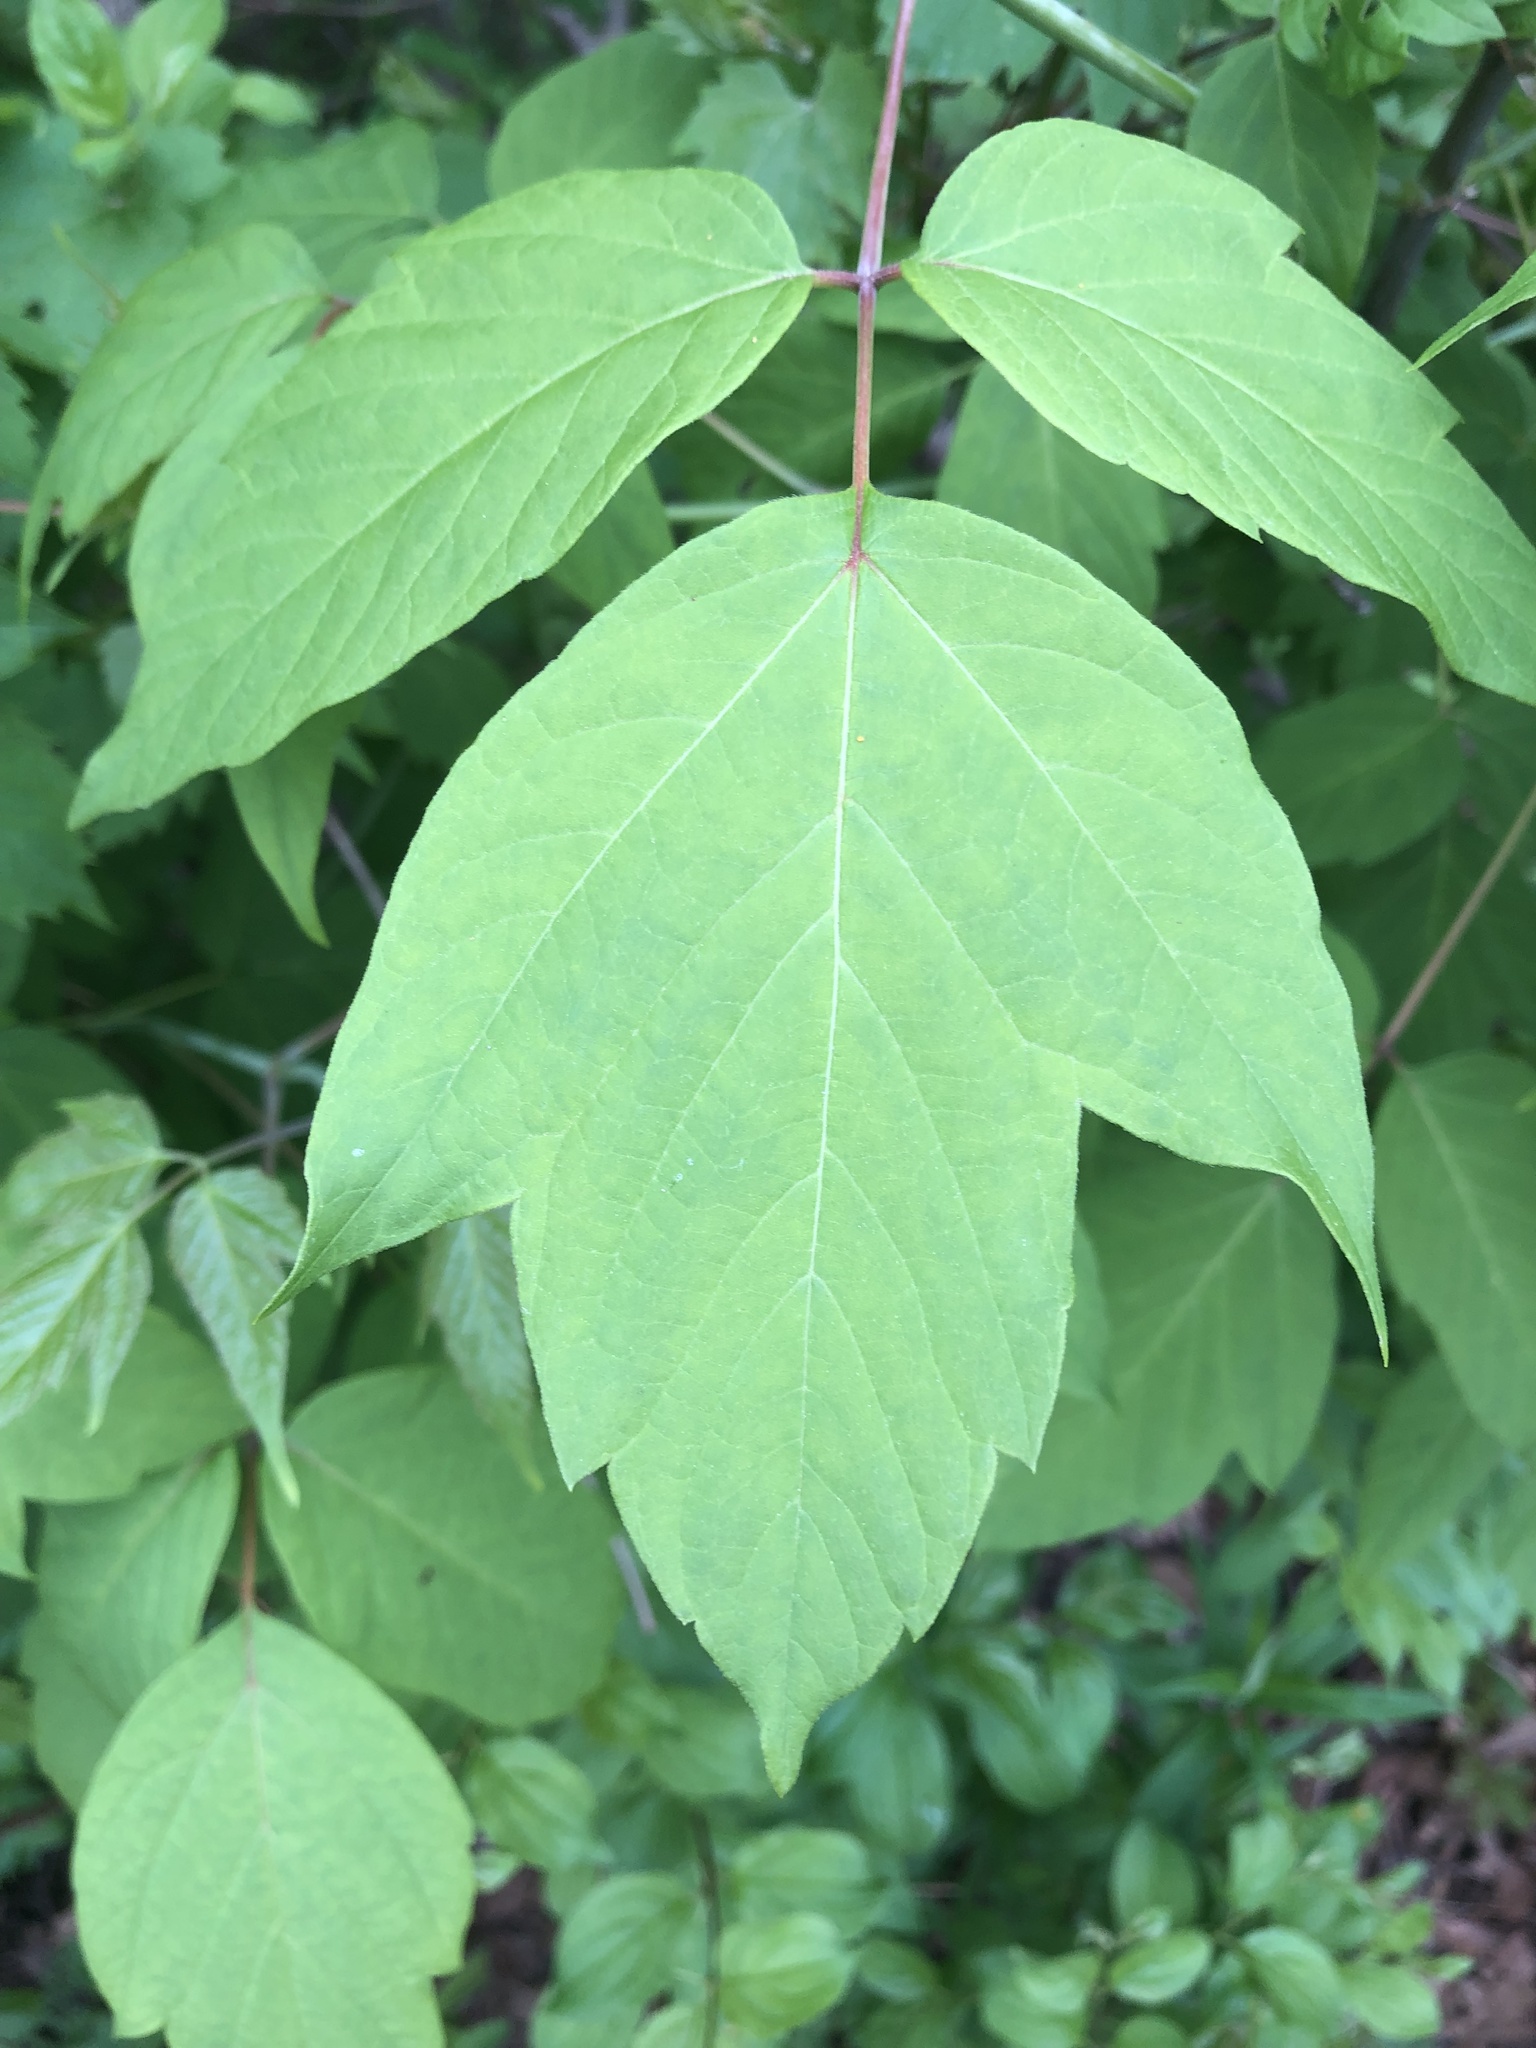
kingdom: Plantae
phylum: Tracheophyta
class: Magnoliopsida
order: Sapindales
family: Sapindaceae
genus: Acer
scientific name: Acer negundo
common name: Ashleaf maple
